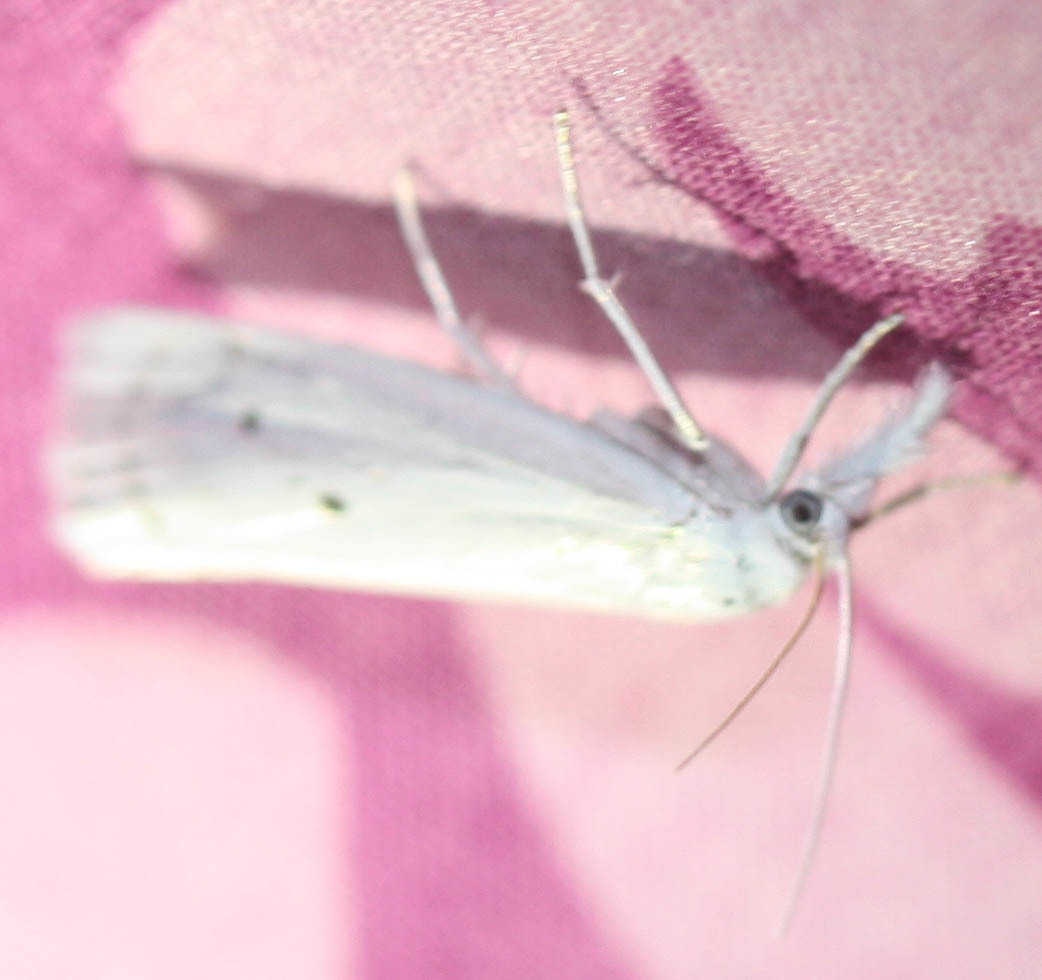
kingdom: Animalia
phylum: Arthropoda
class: Insecta
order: Lepidoptera
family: Crambidae
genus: Crambus
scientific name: Crambus Arequipa turbatella
